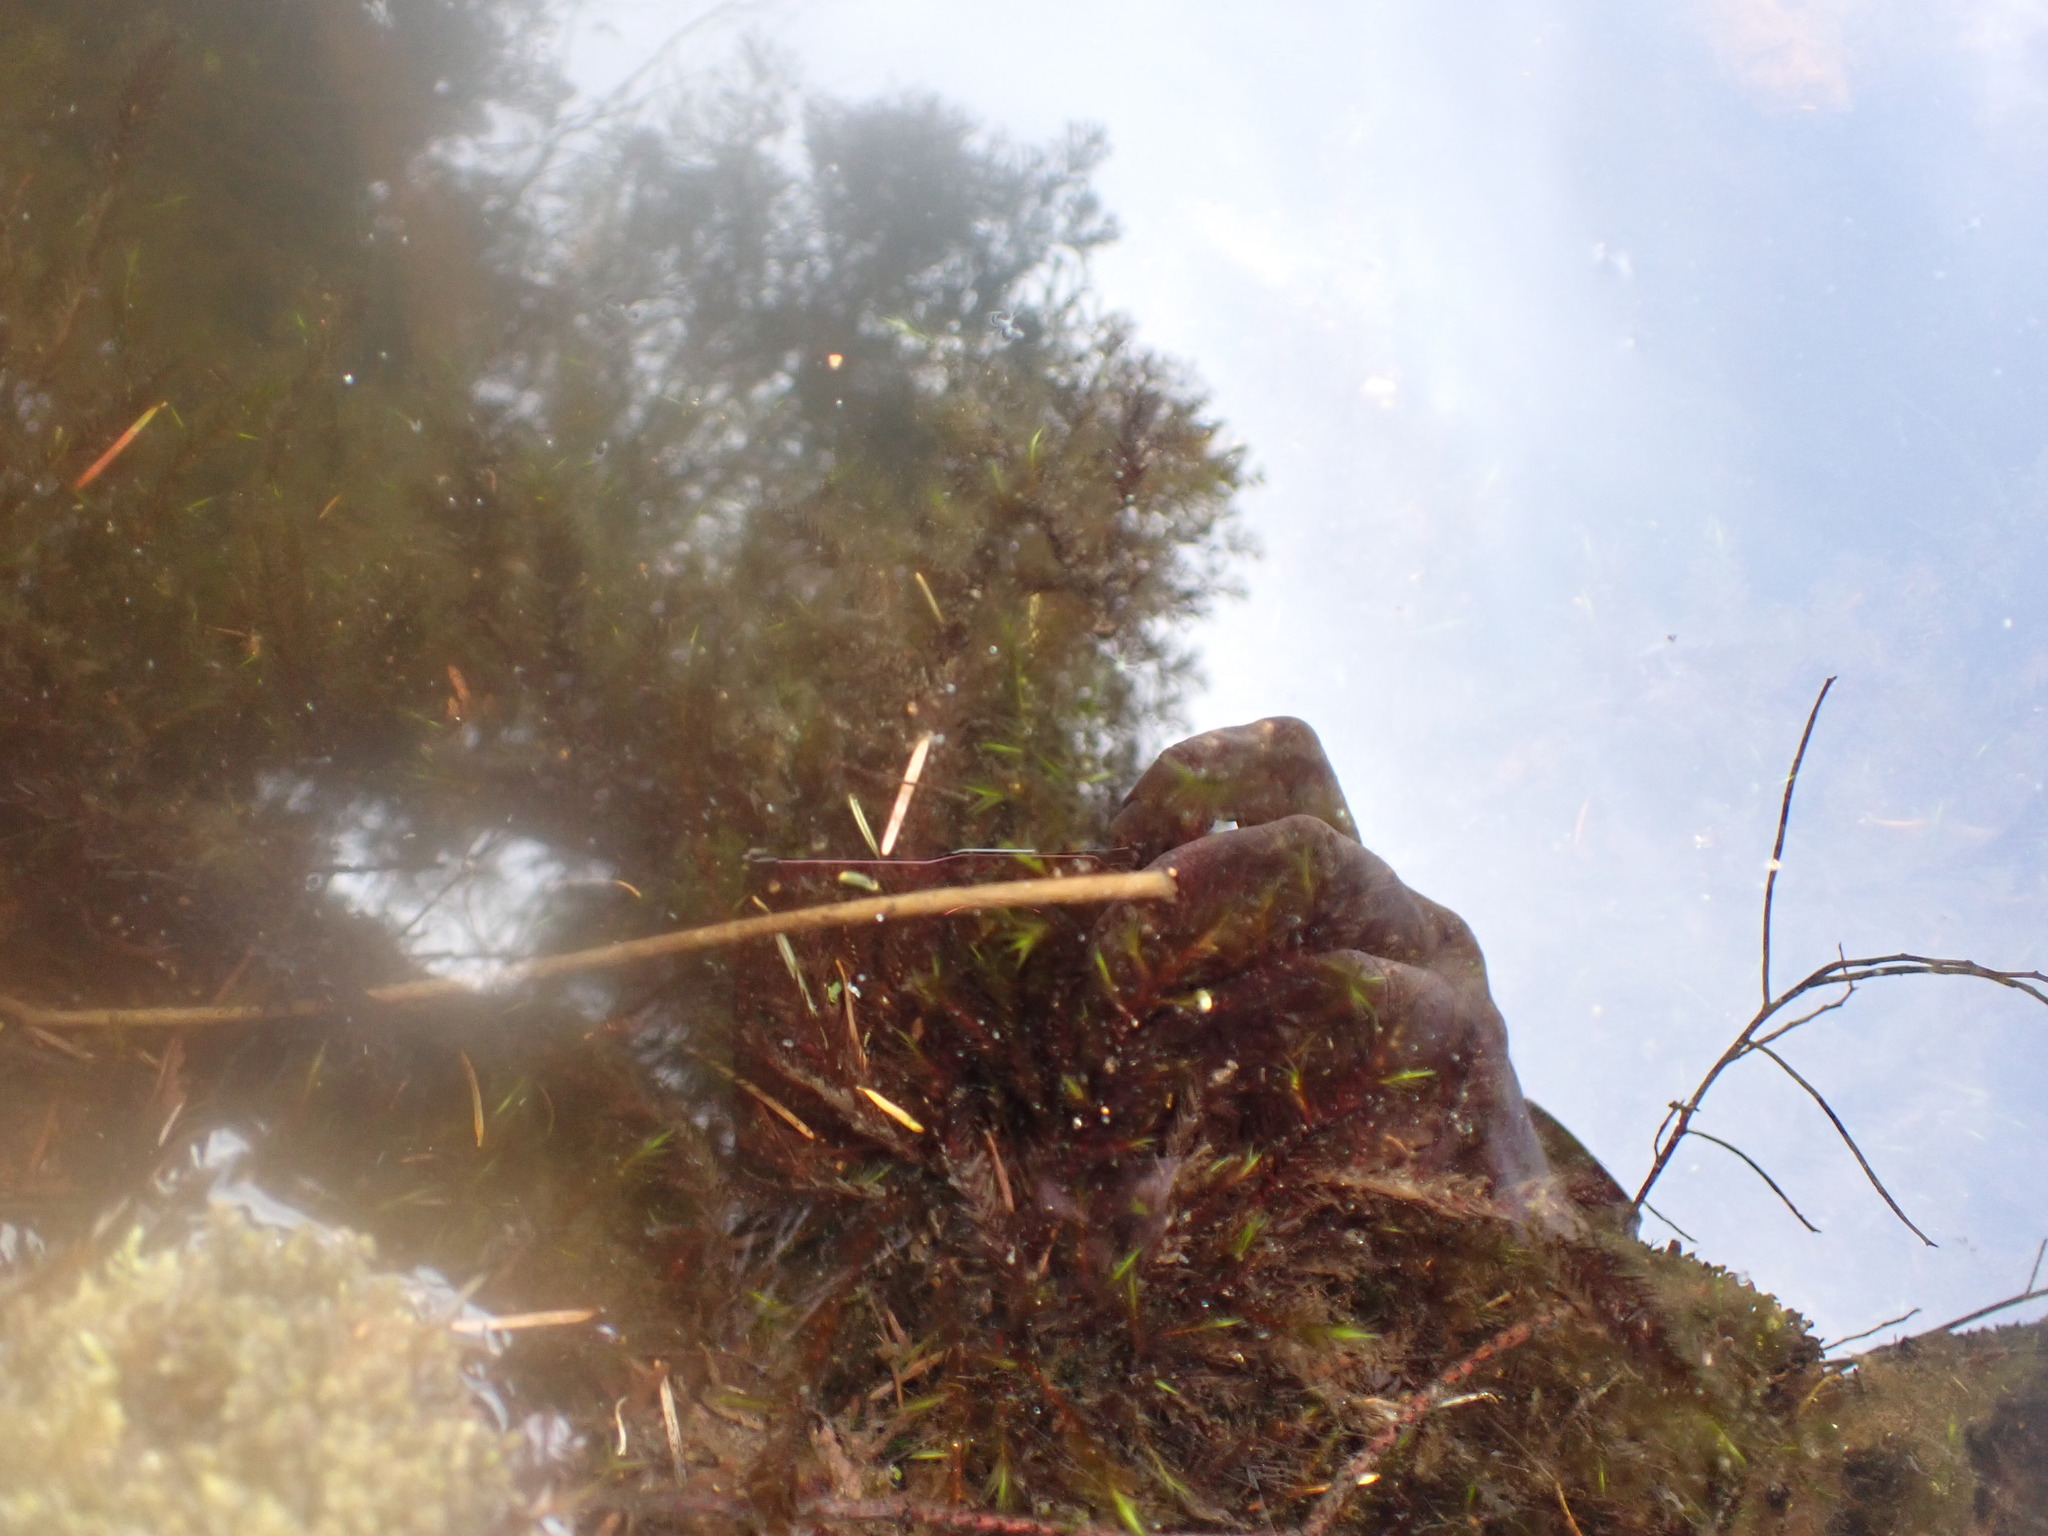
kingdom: Plantae
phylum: Bryophyta
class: Bryopsida
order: Hypnales
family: Fontinalaceae
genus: Fontinalis
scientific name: Fontinalis antipyretica
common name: Greater water-moss
